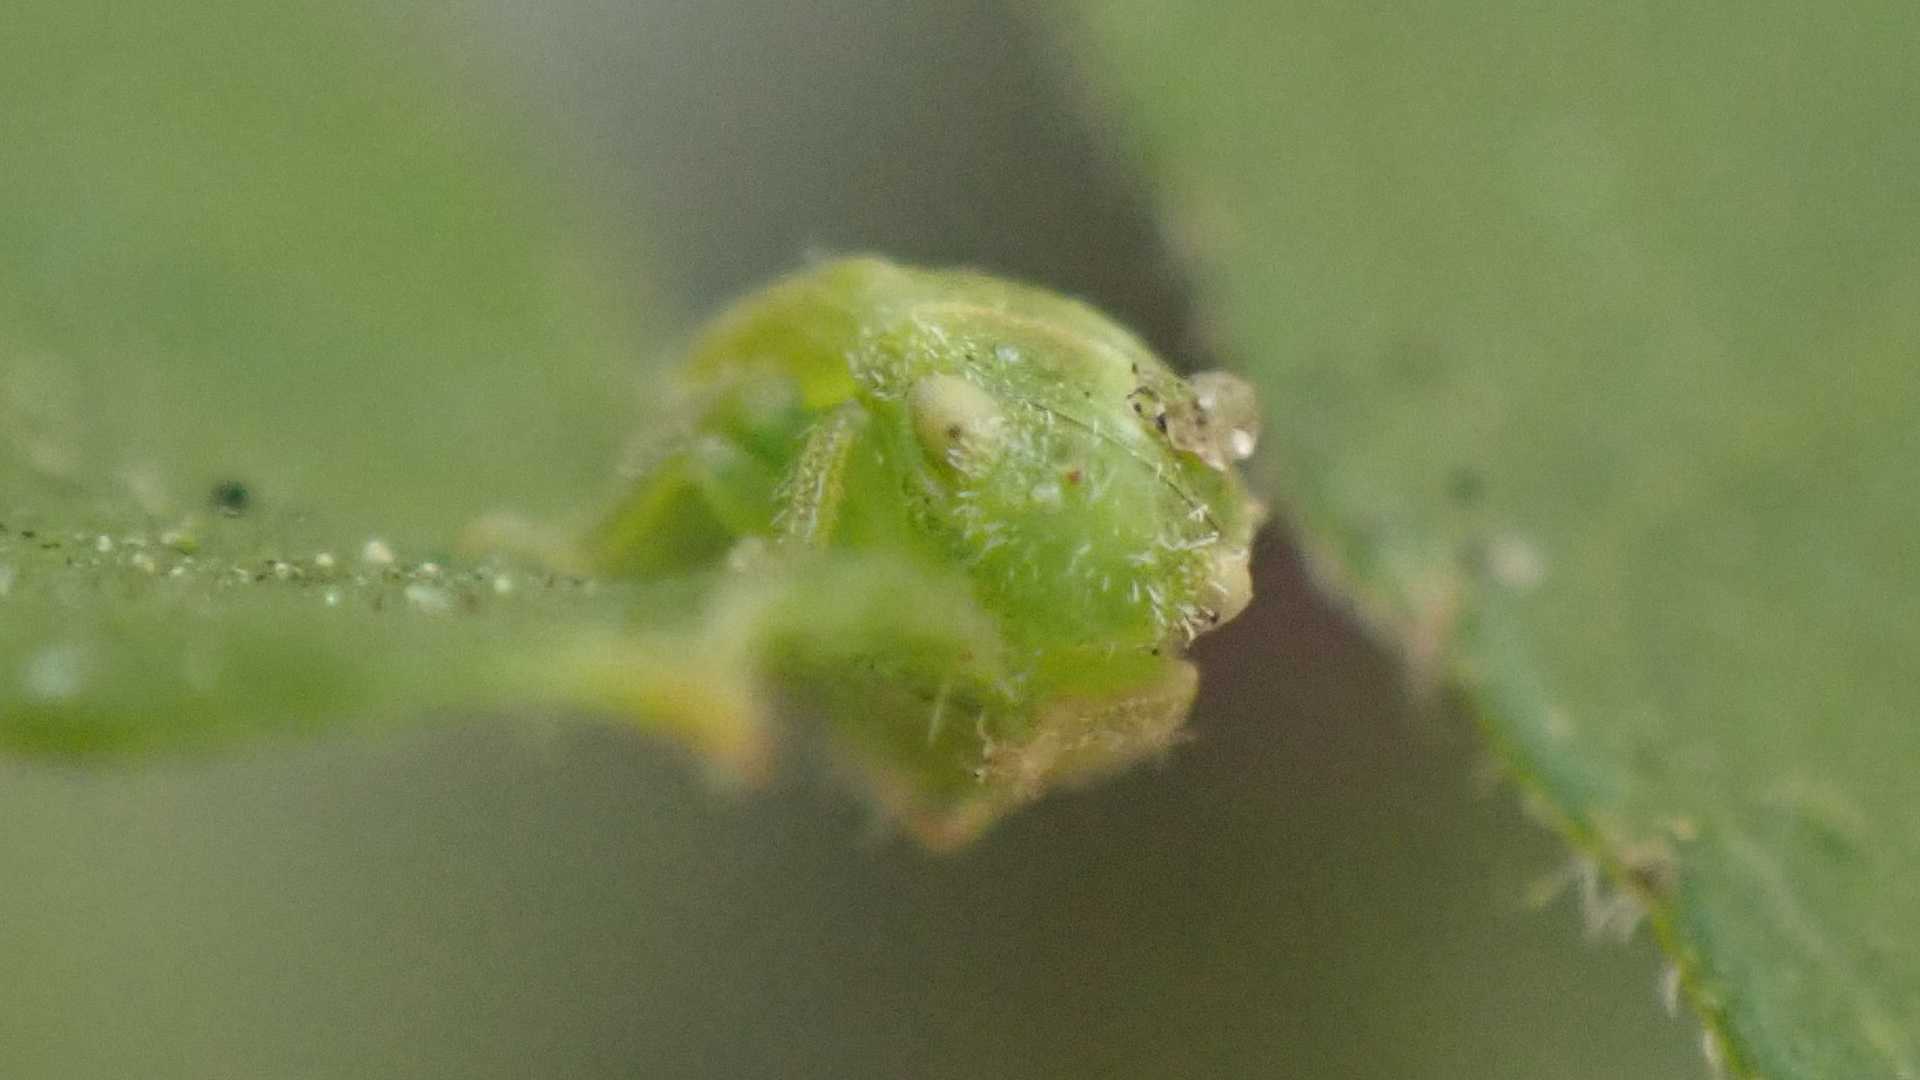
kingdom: Animalia
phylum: Arthropoda
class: Insecta
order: Hemiptera
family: Cicadellidae
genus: Stragania
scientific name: Stragania apicalis
